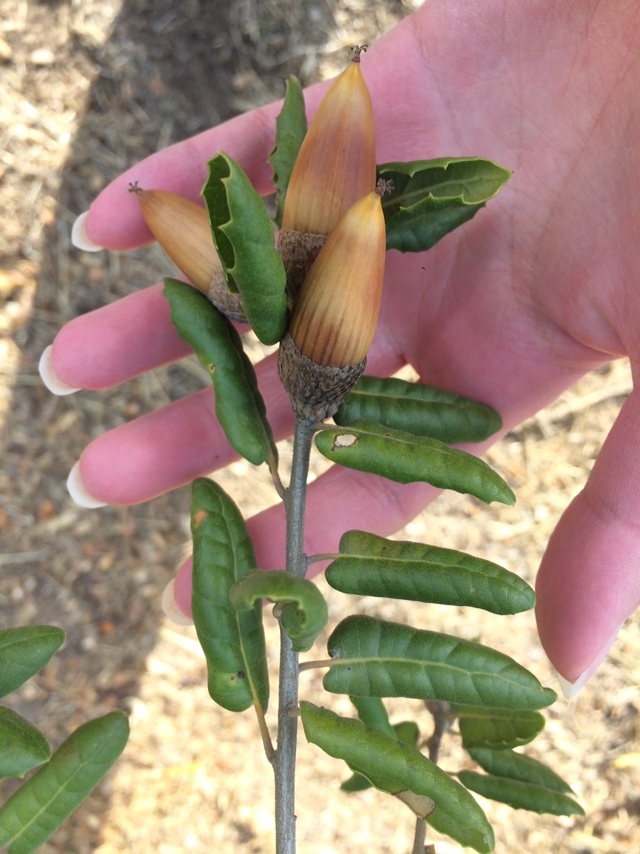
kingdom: Plantae
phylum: Tracheophyta
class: Magnoliopsida
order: Fagales
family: Fagaceae
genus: Quercus
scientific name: Quercus agrifolia
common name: California live oak
